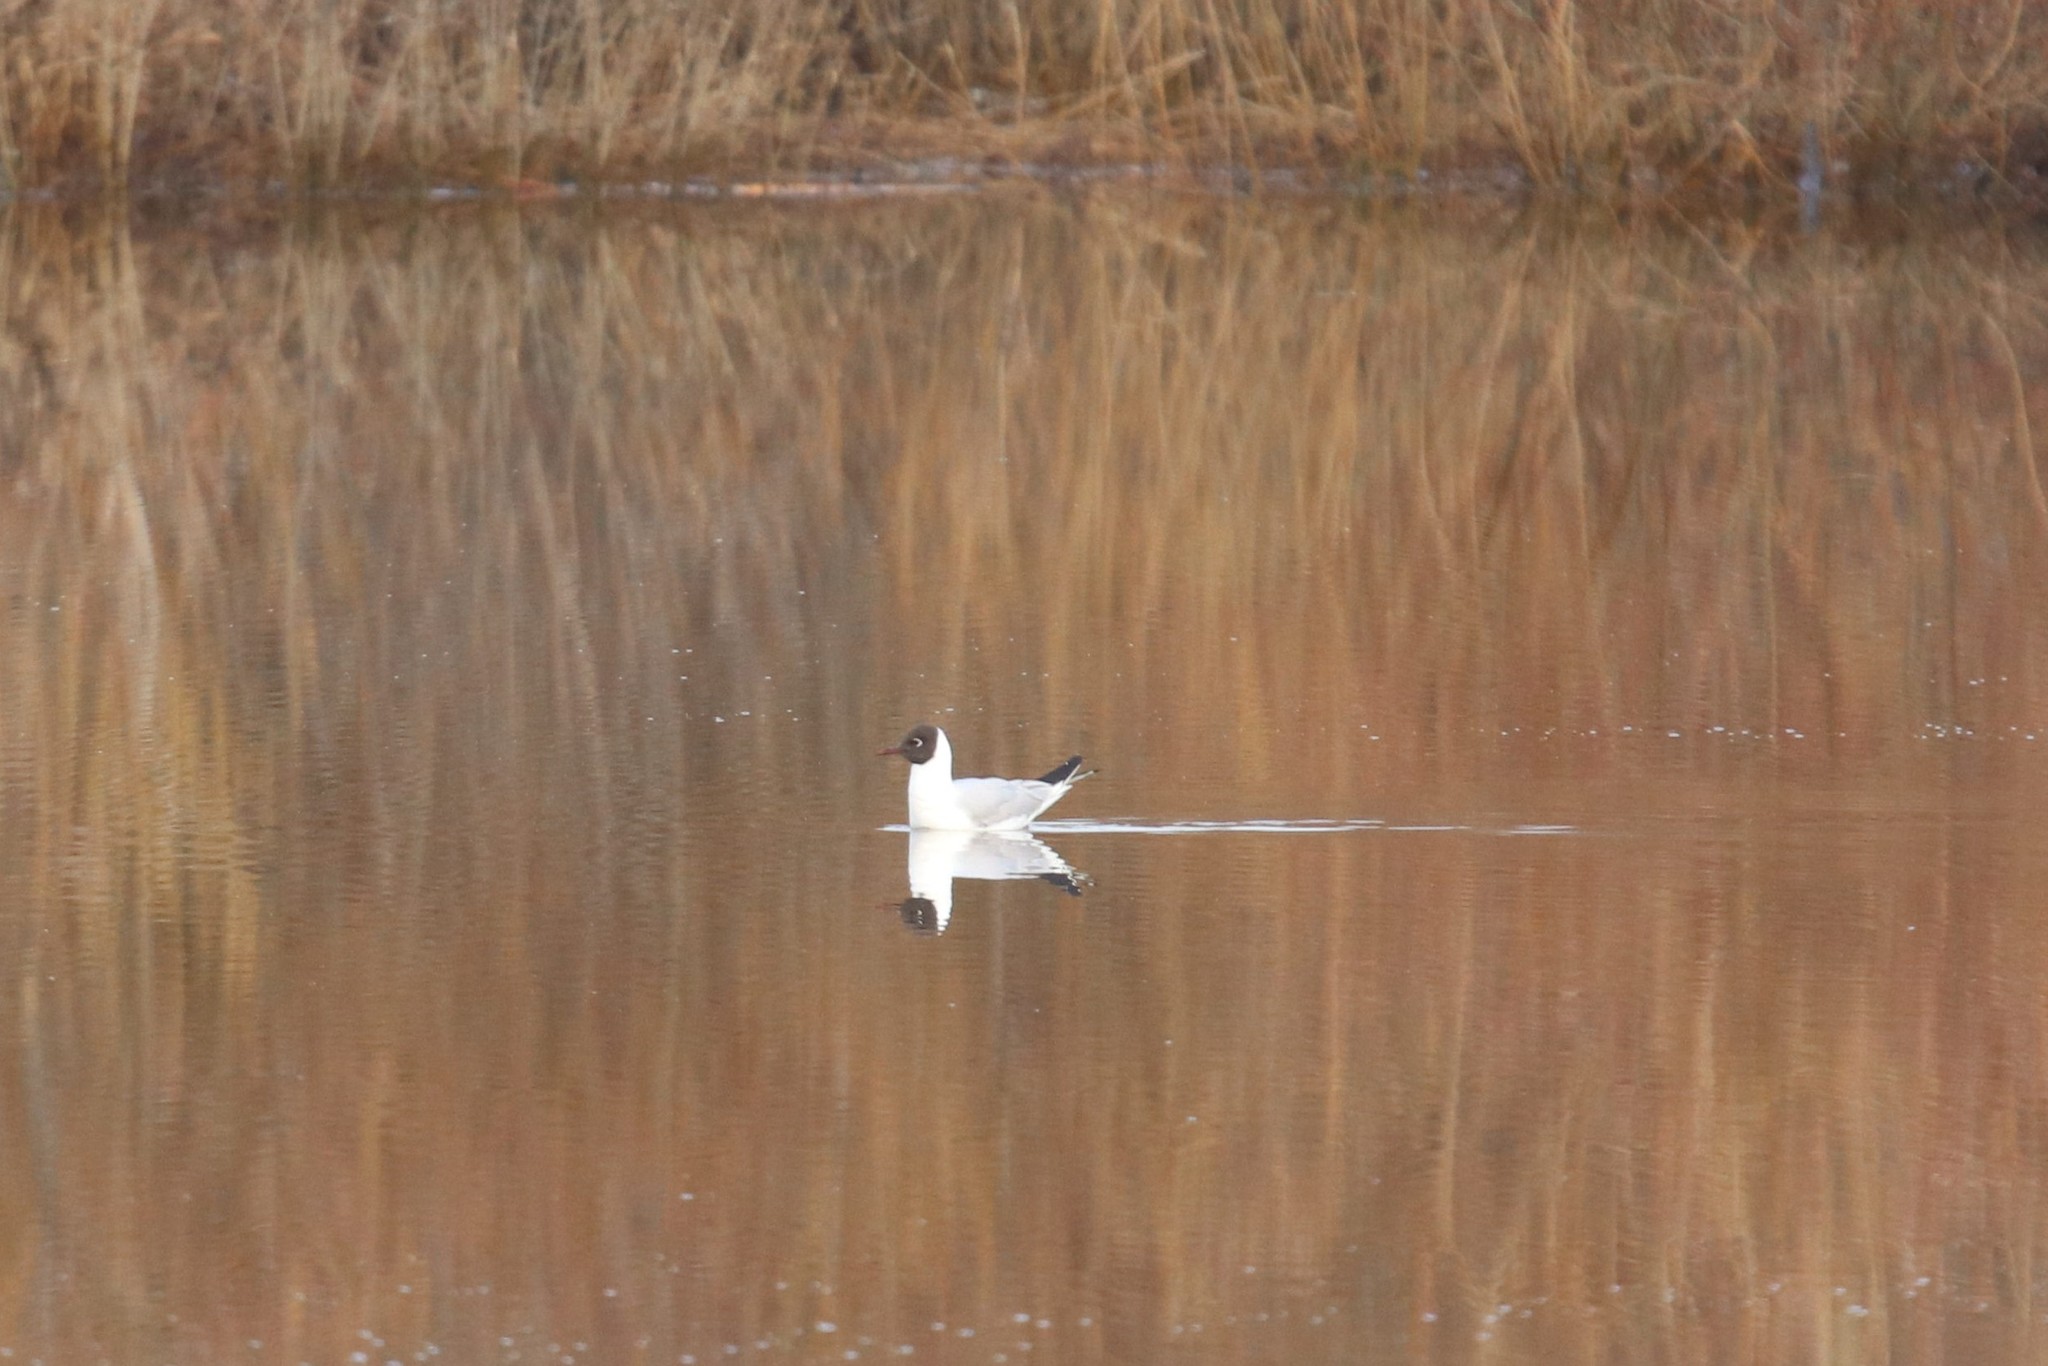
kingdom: Animalia
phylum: Chordata
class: Aves
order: Charadriiformes
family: Laridae
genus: Chroicocephalus
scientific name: Chroicocephalus ridibundus
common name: Black-headed gull
